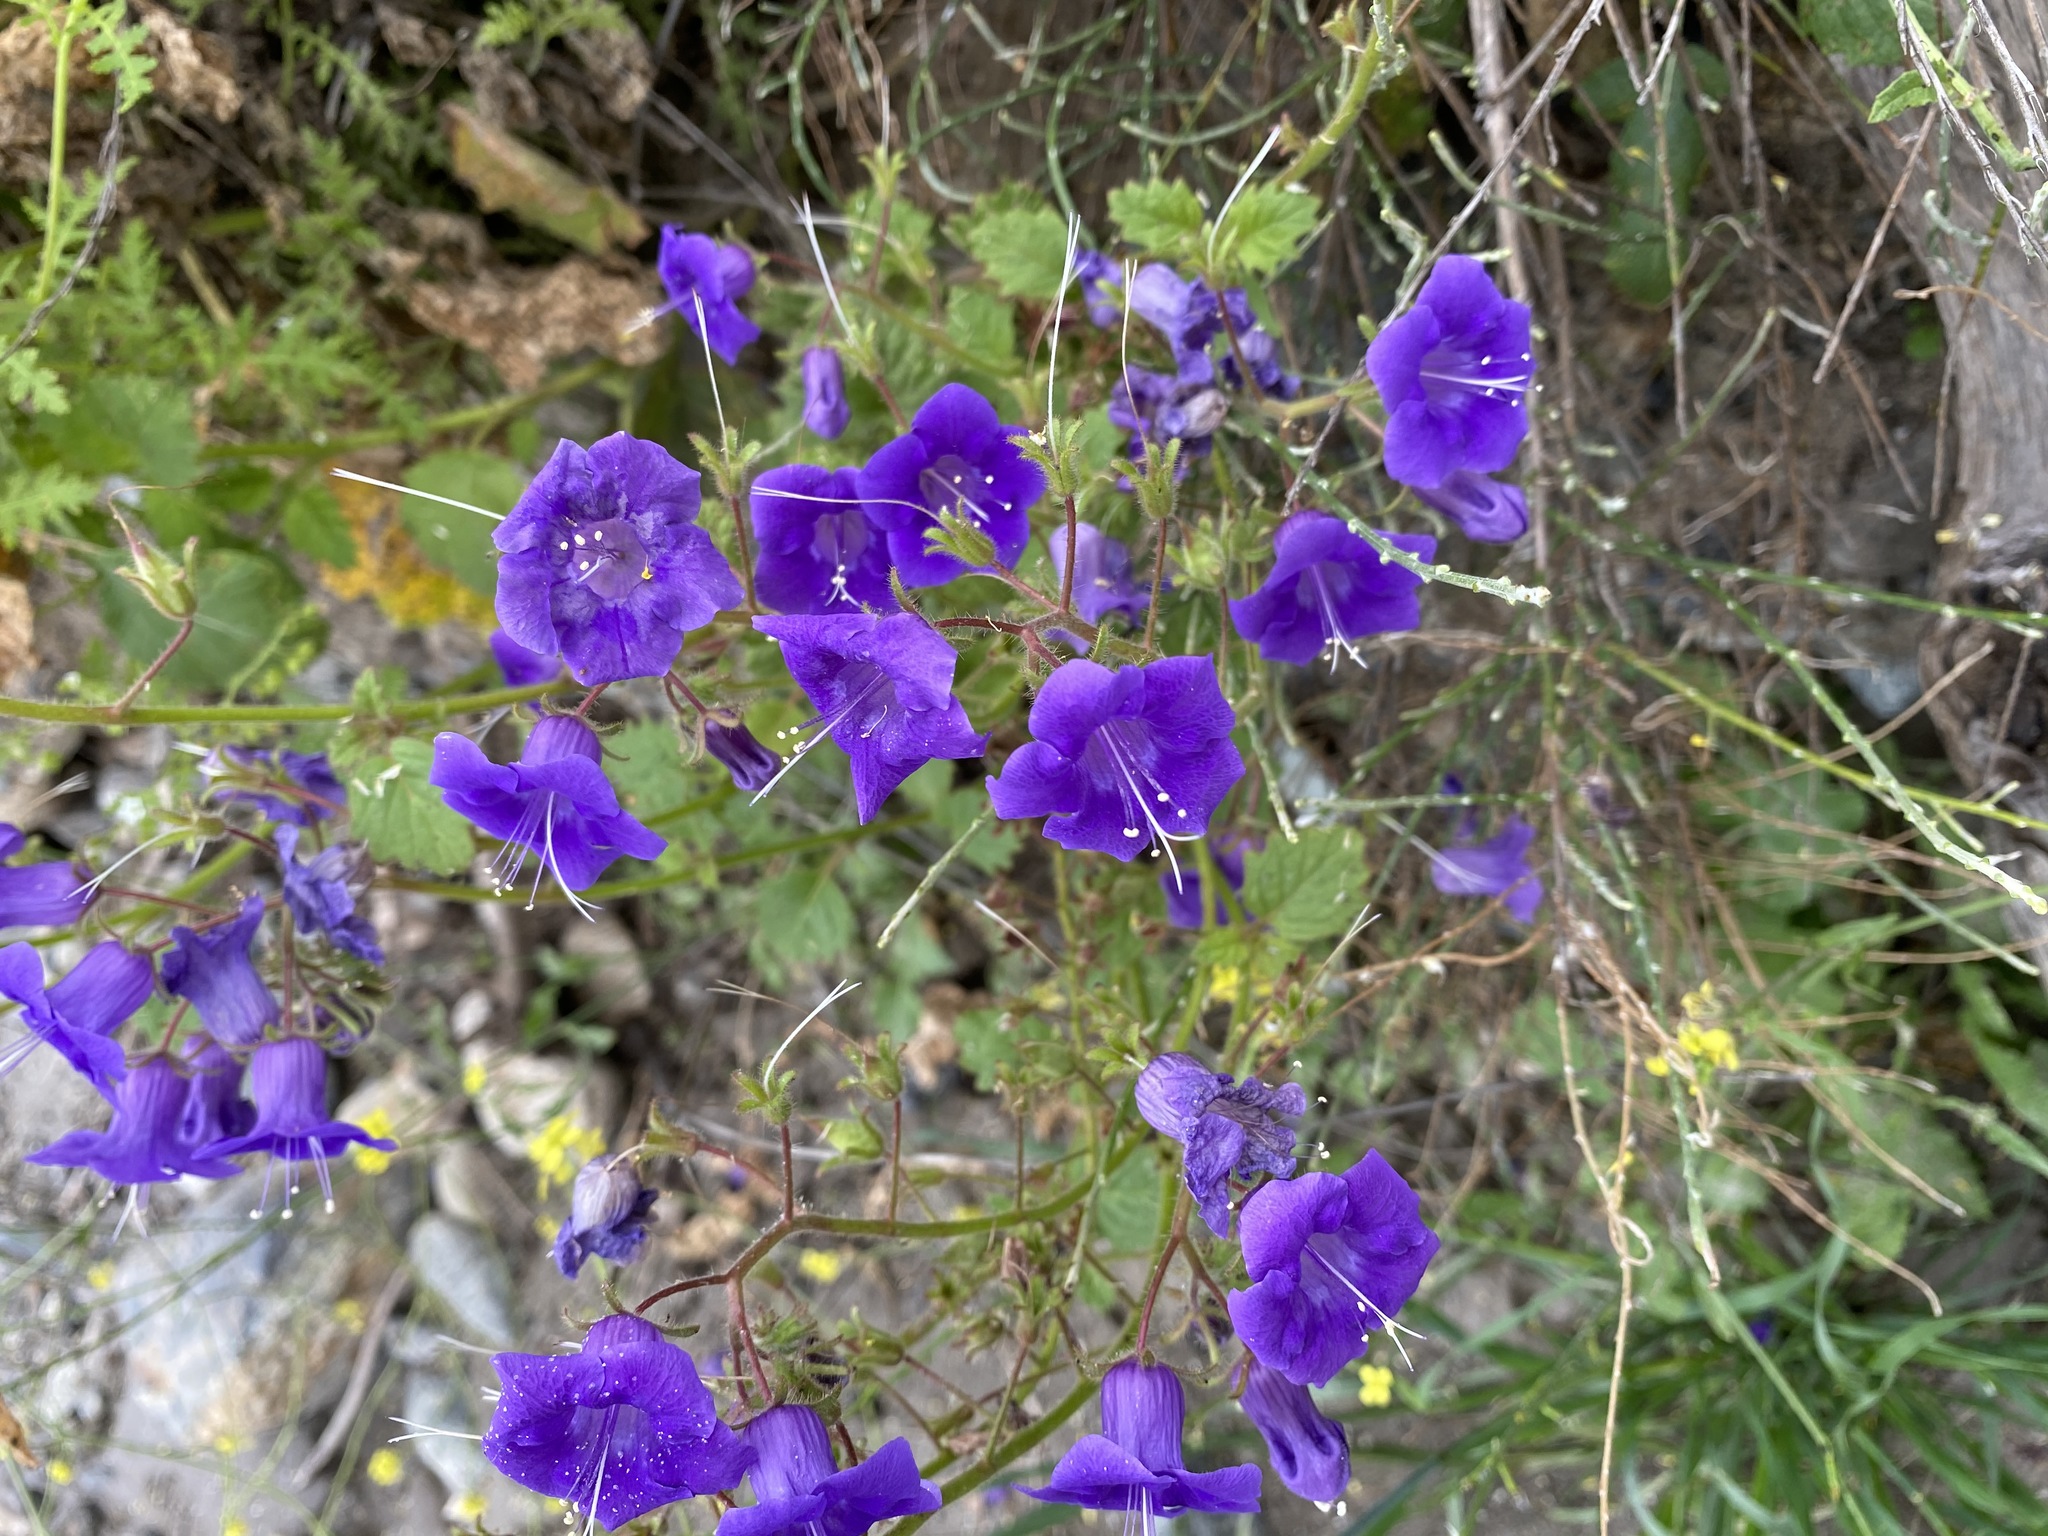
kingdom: Plantae
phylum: Tracheophyta
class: Magnoliopsida
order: Boraginales
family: Hydrophyllaceae
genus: Phacelia
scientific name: Phacelia parryi
